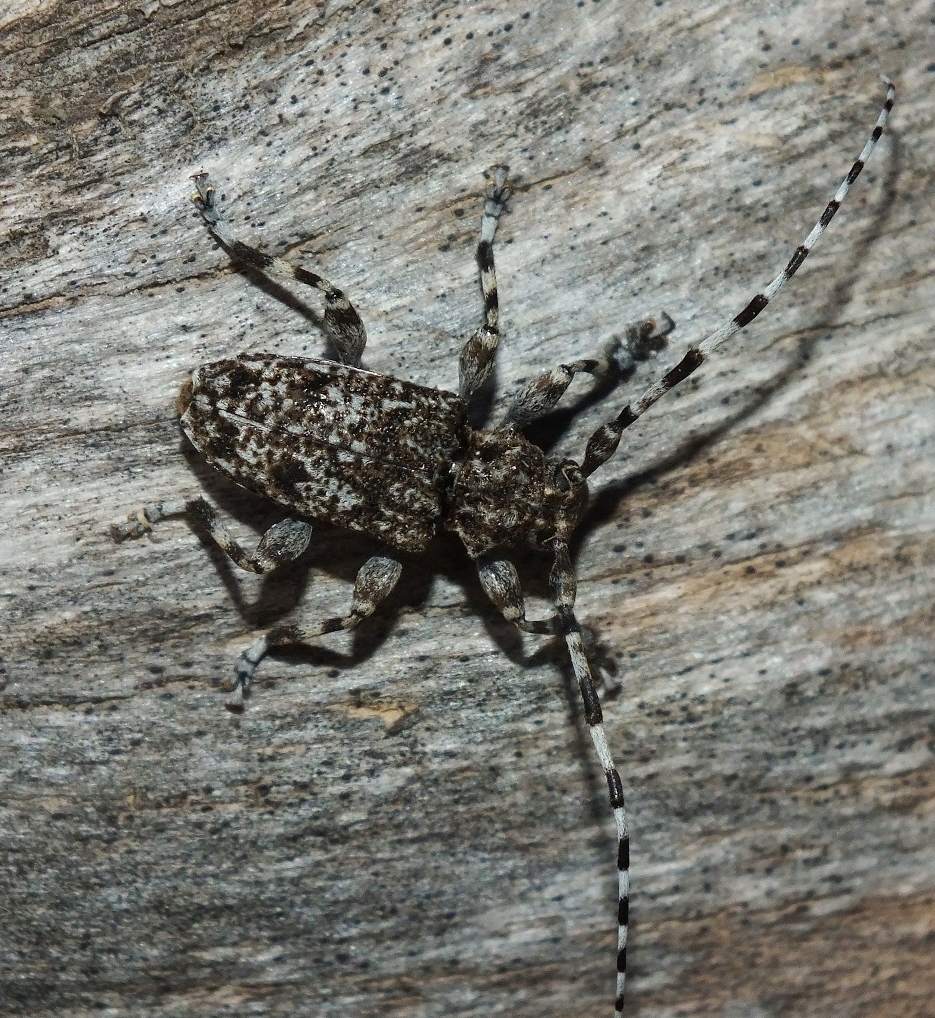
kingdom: Animalia
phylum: Arthropoda
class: Insecta
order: Coleoptera
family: Cerambycidae
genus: Aegomorphus
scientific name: Aegomorphus clavipes
